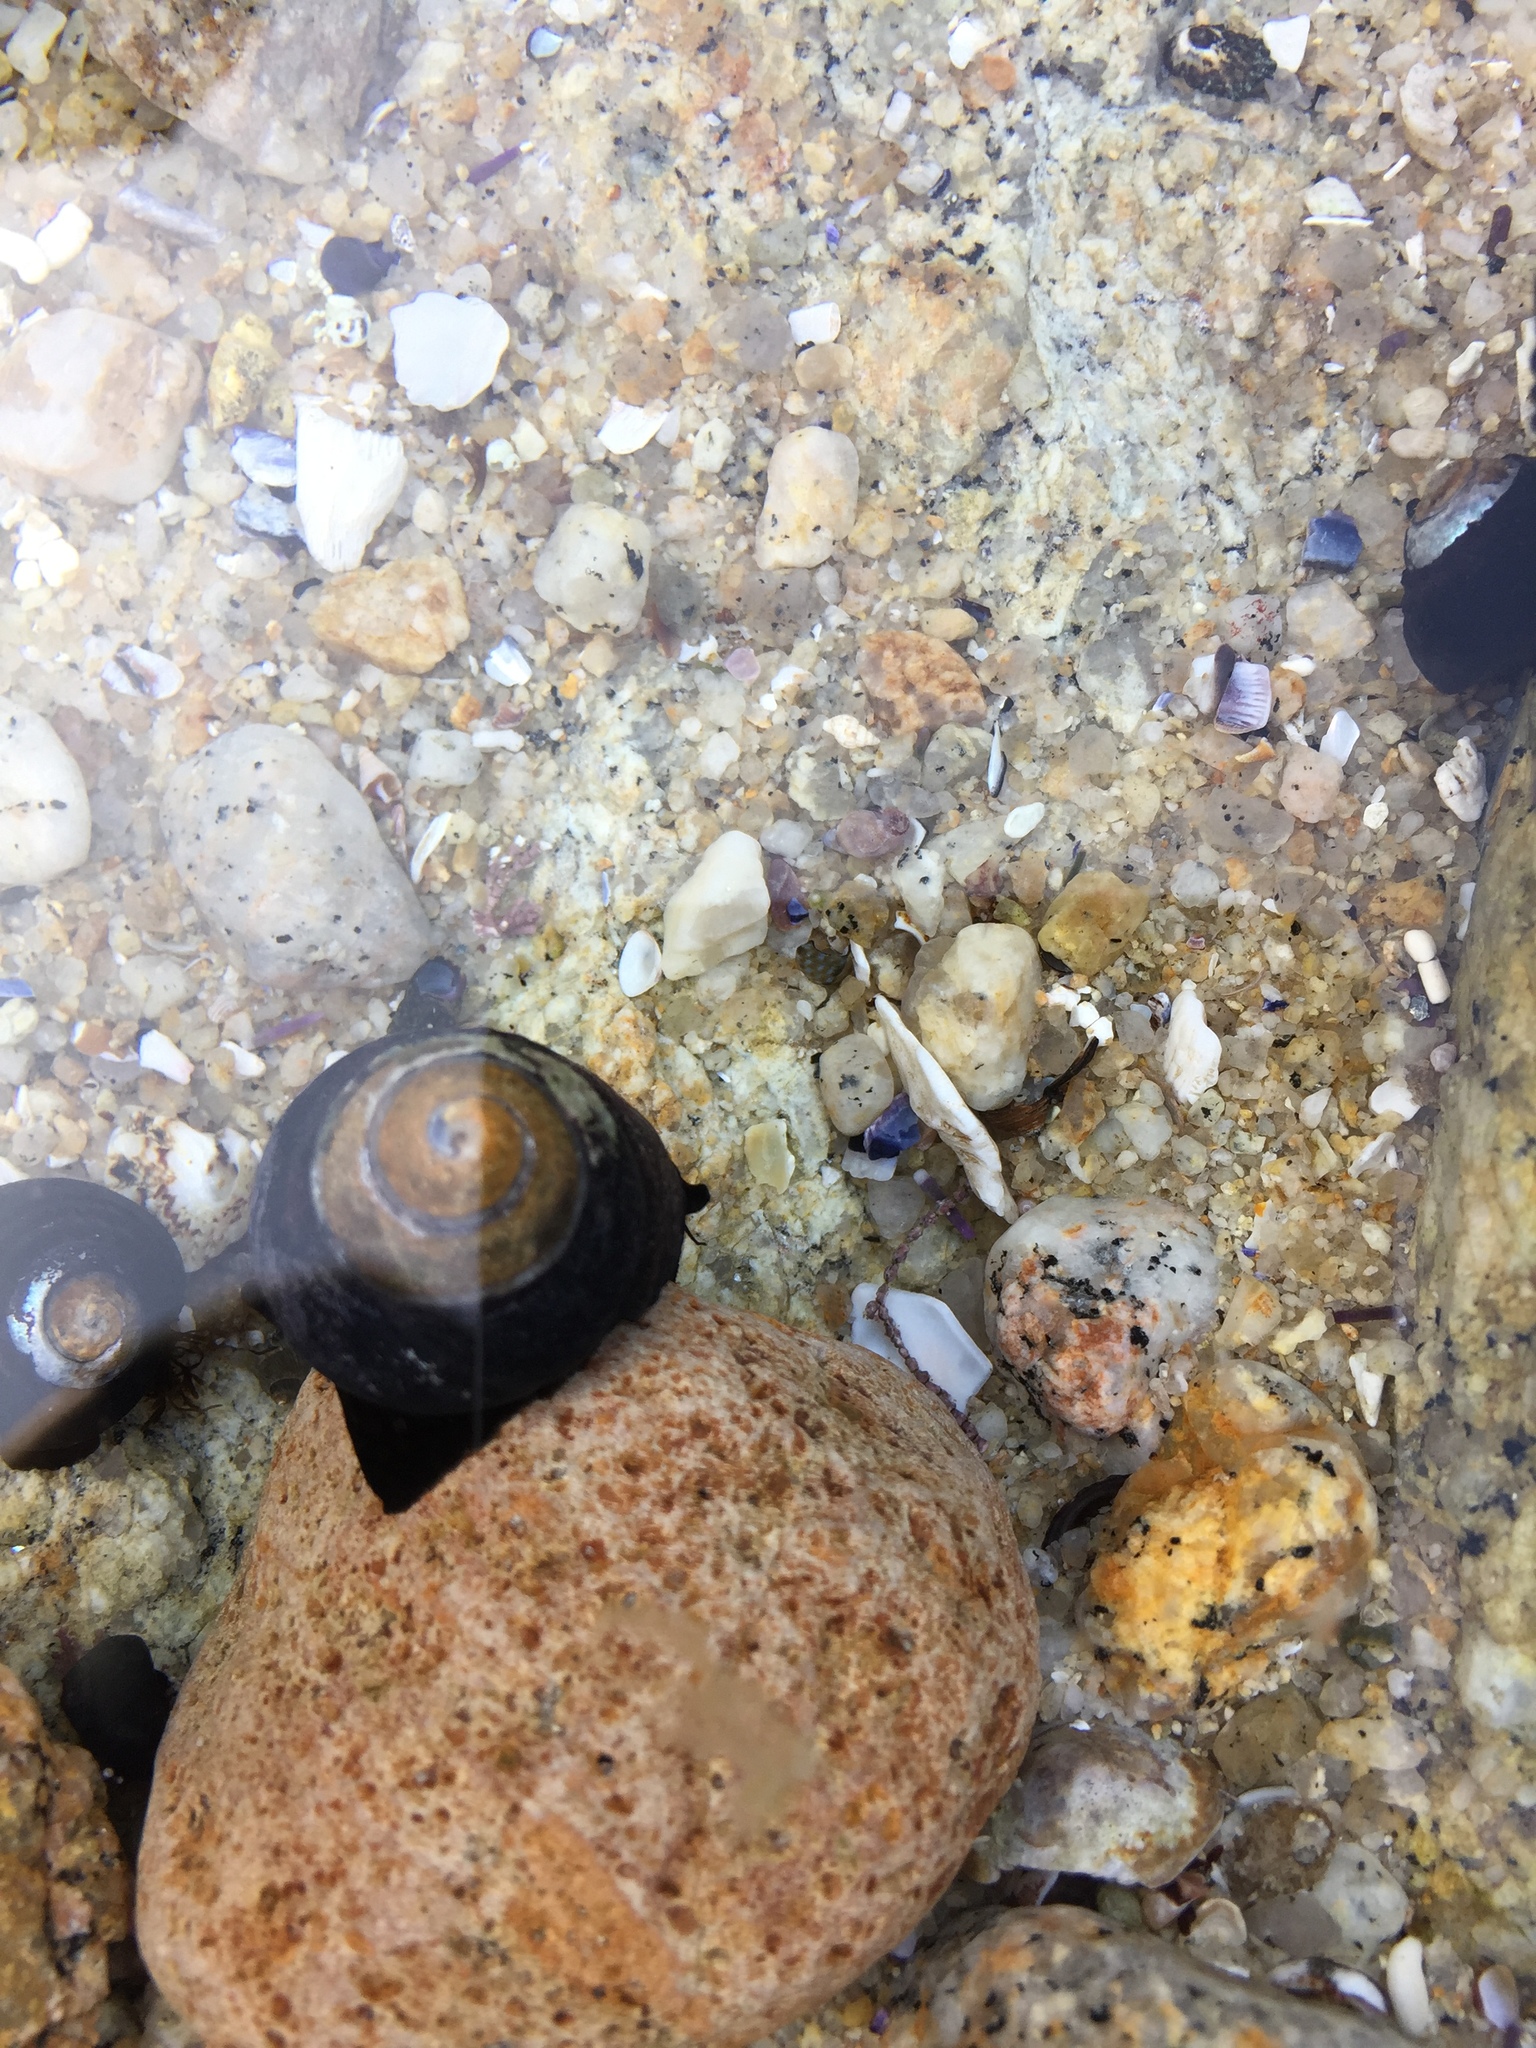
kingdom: Animalia
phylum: Mollusca
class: Gastropoda
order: Trochida
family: Tegulidae
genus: Tegula
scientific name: Tegula funebralis
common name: Black tegula
